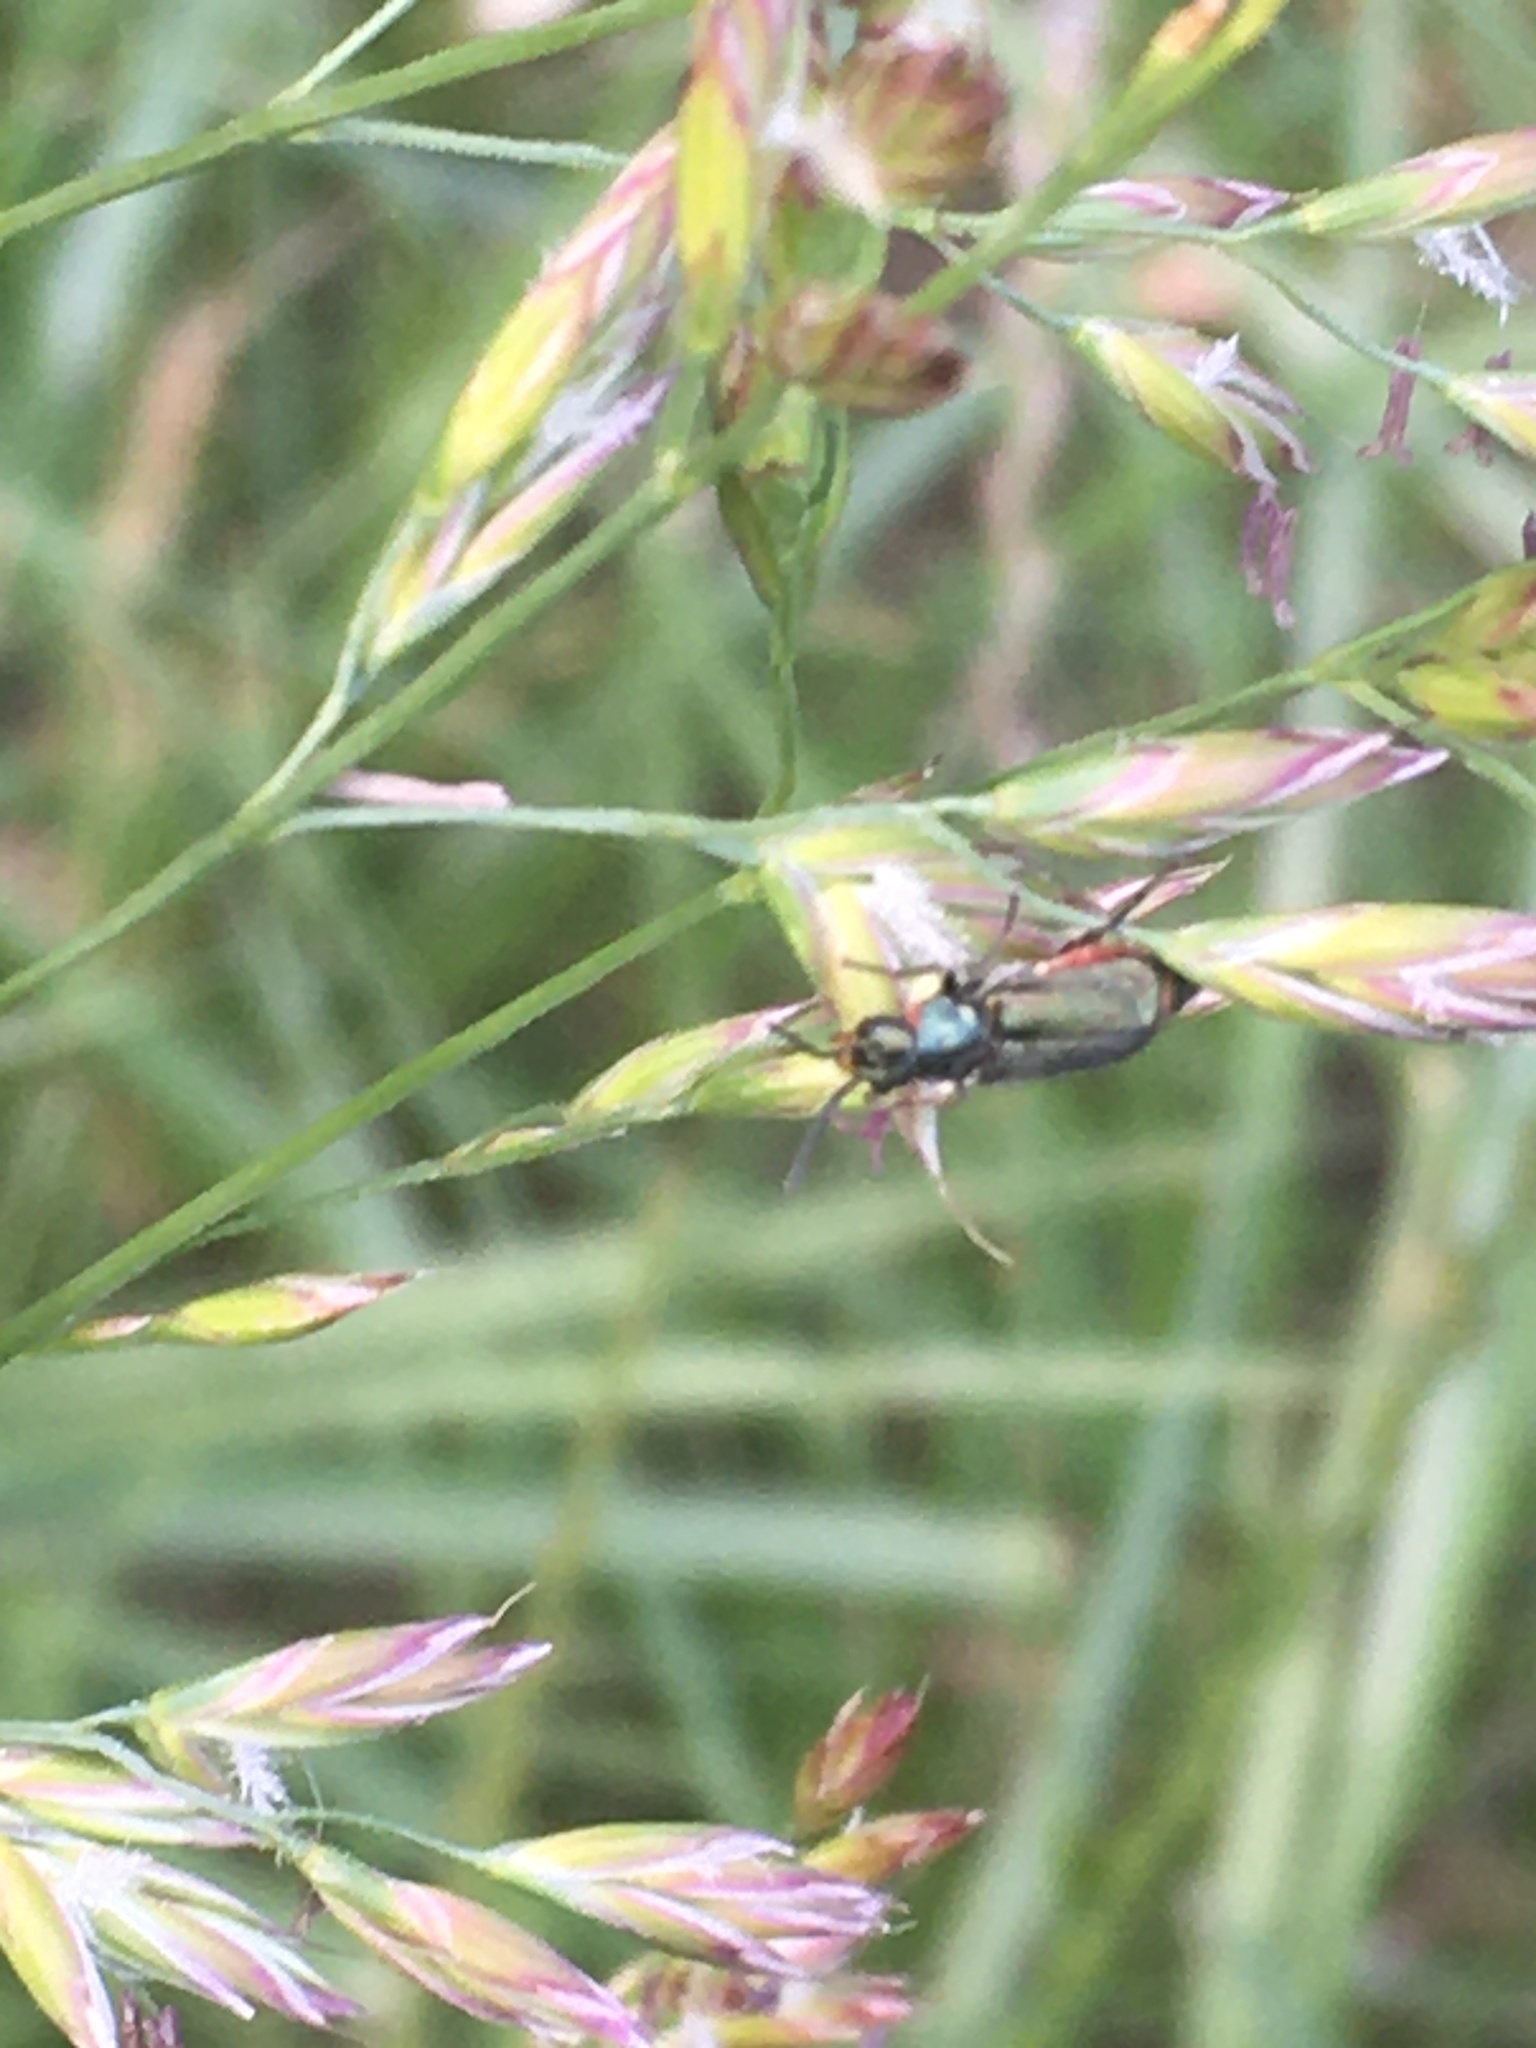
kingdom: Animalia
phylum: Arthropoda
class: Insecta
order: Coleoptera
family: Melyridae
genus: Malachius
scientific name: Malachius bipustulatus
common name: Malachite beetle
